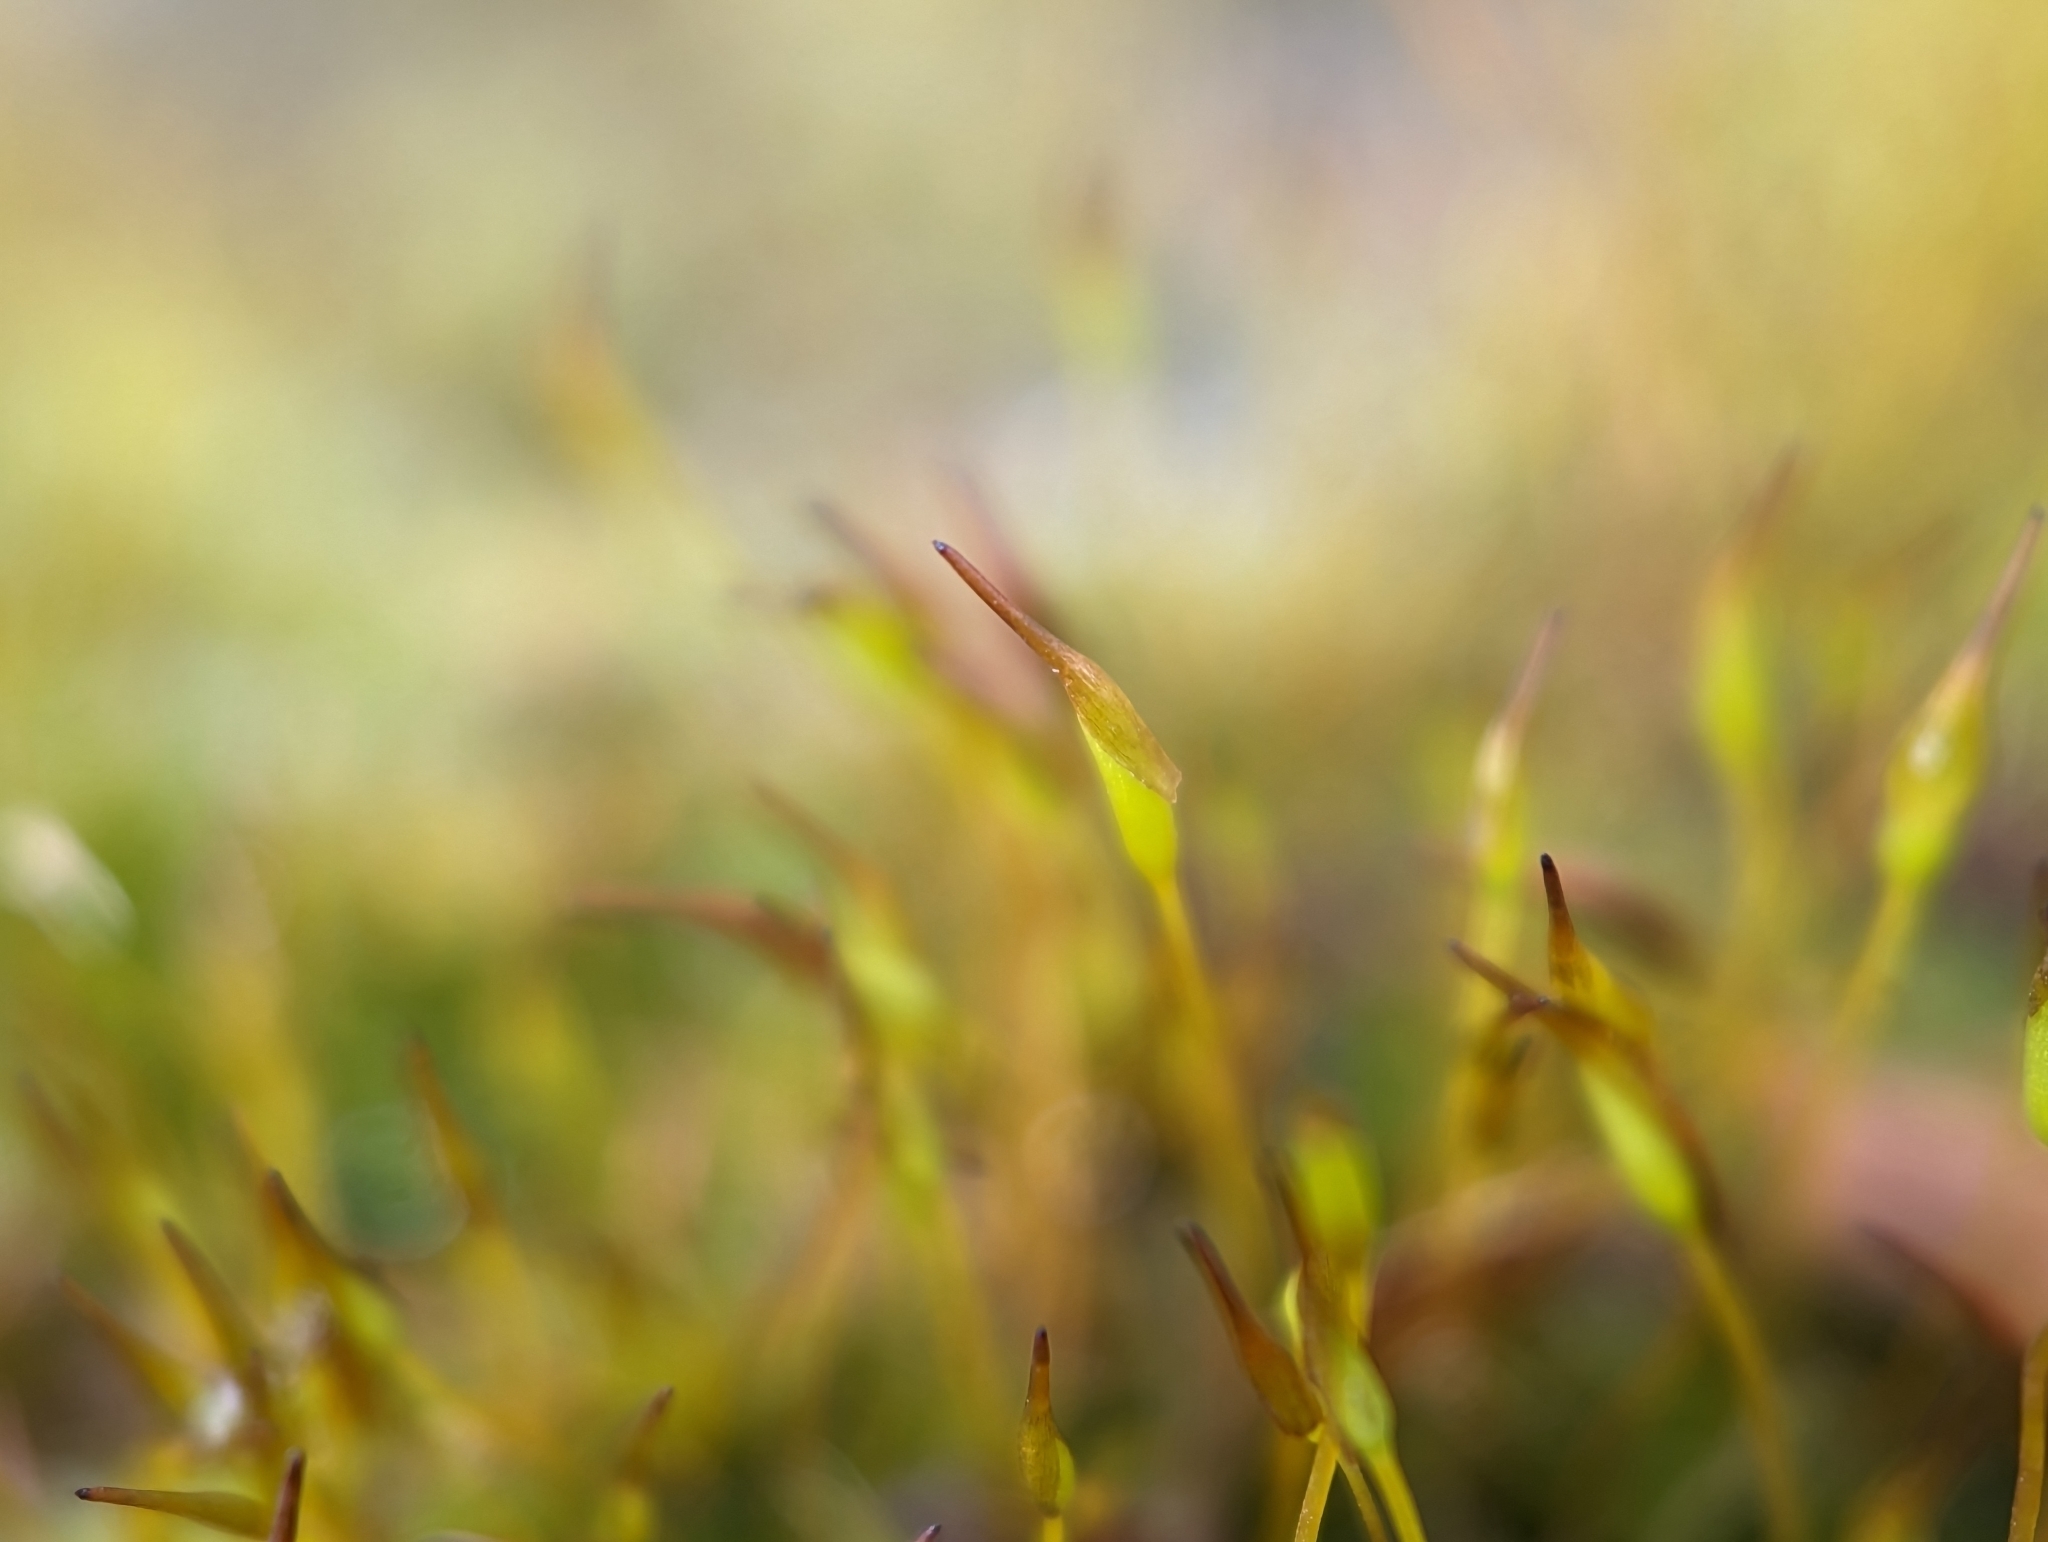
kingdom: Plantae
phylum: Bryophyta
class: Bryopsida
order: Pottiales
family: Pottiaceae
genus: Tortula
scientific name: Tortula muralis
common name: Wall screw-moss
